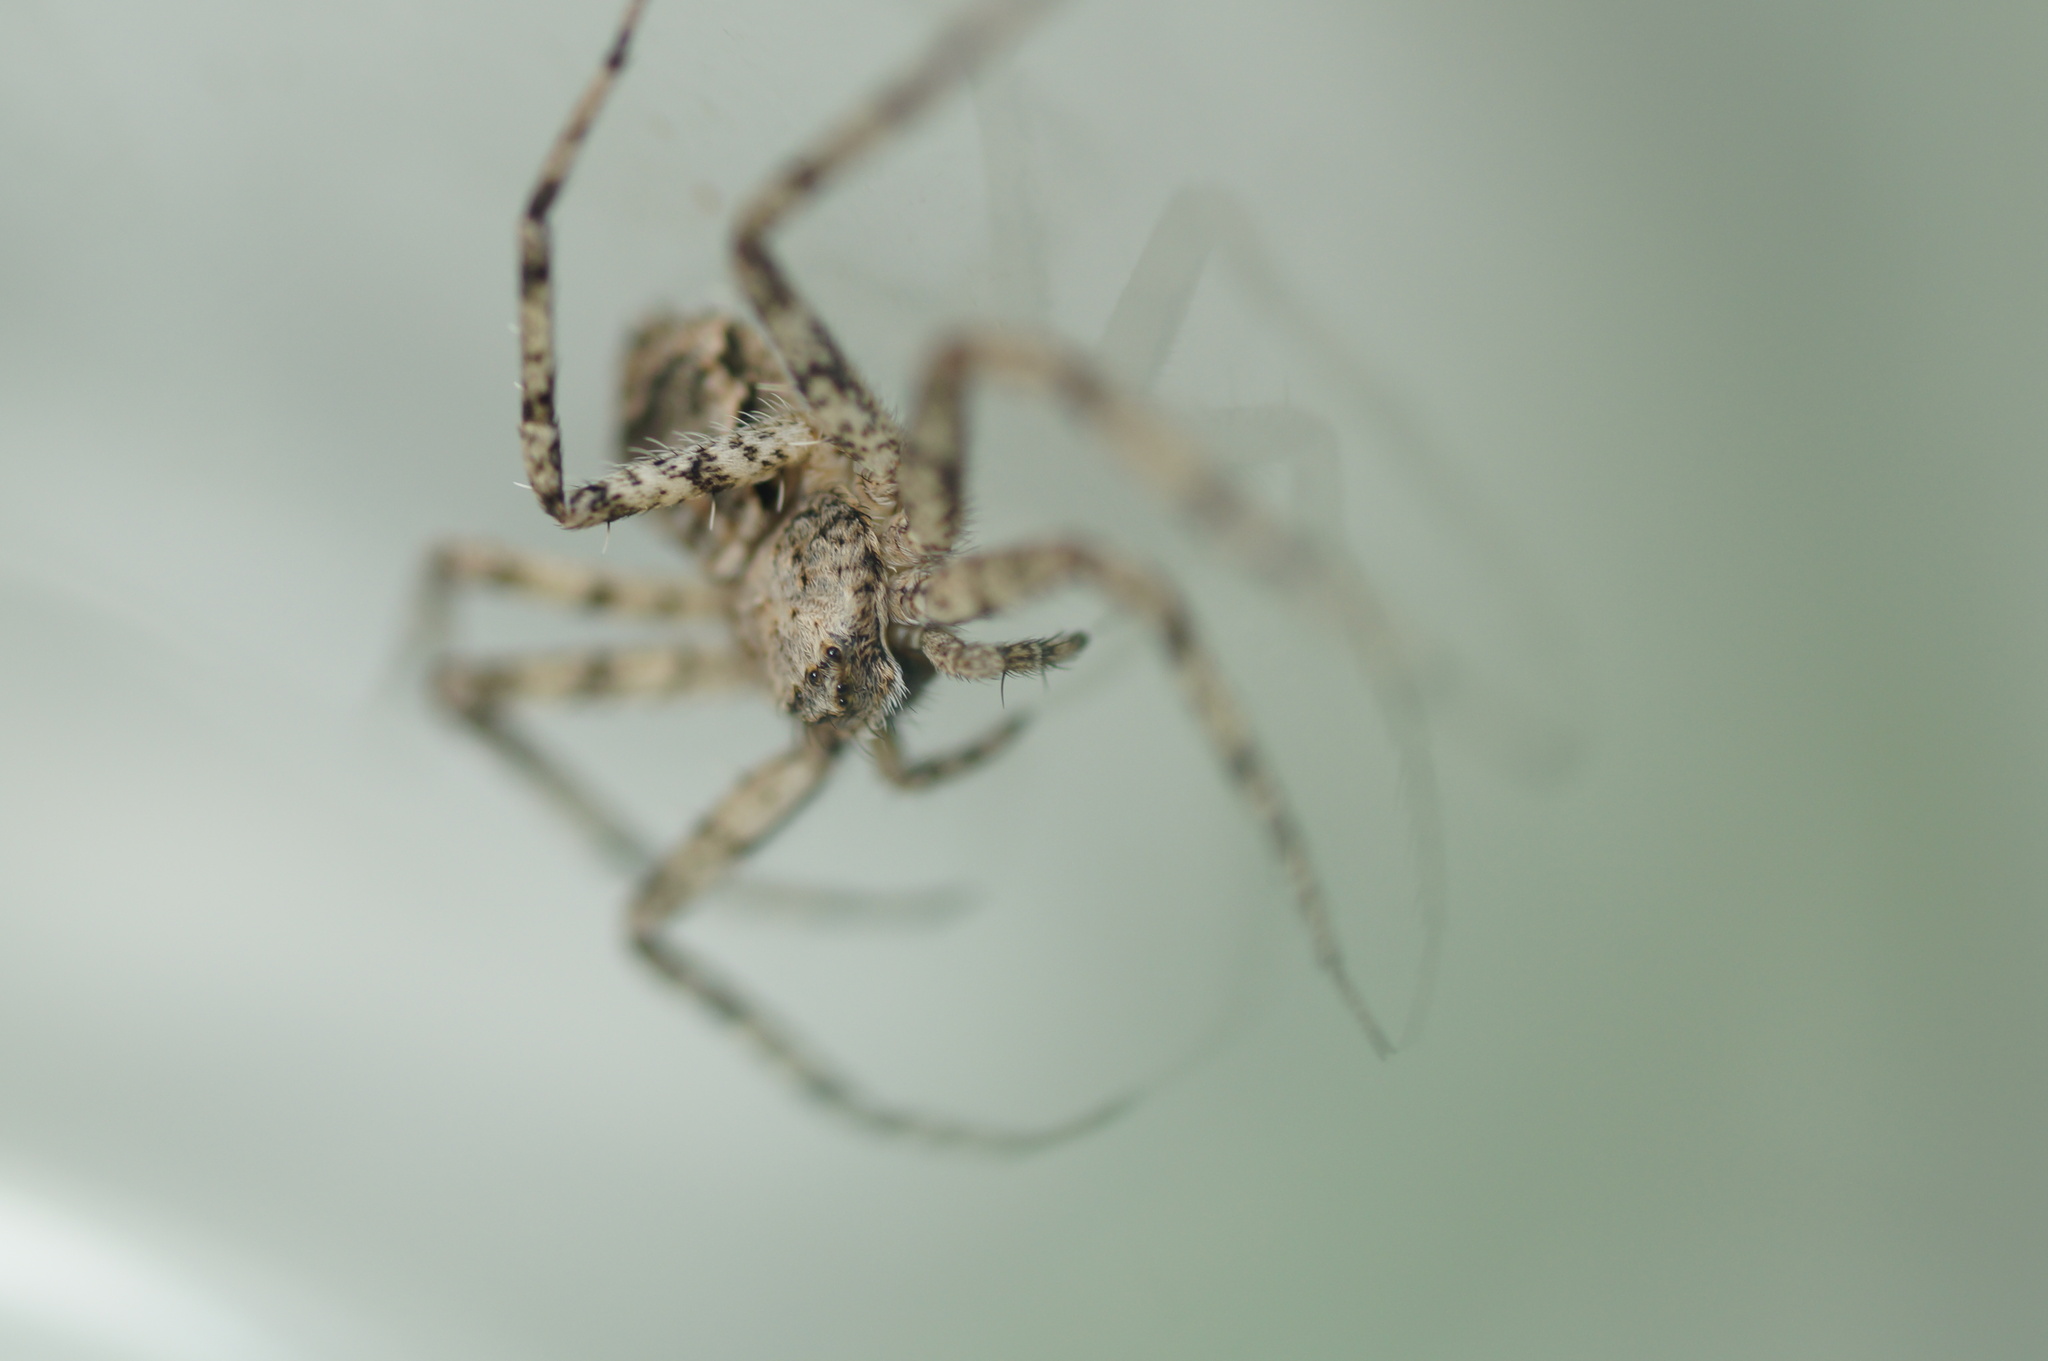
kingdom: Animalia
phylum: Arthropoda
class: Arachnida
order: Araneae
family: Philodromidae
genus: Philodromus
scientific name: Philodromus poecilus
